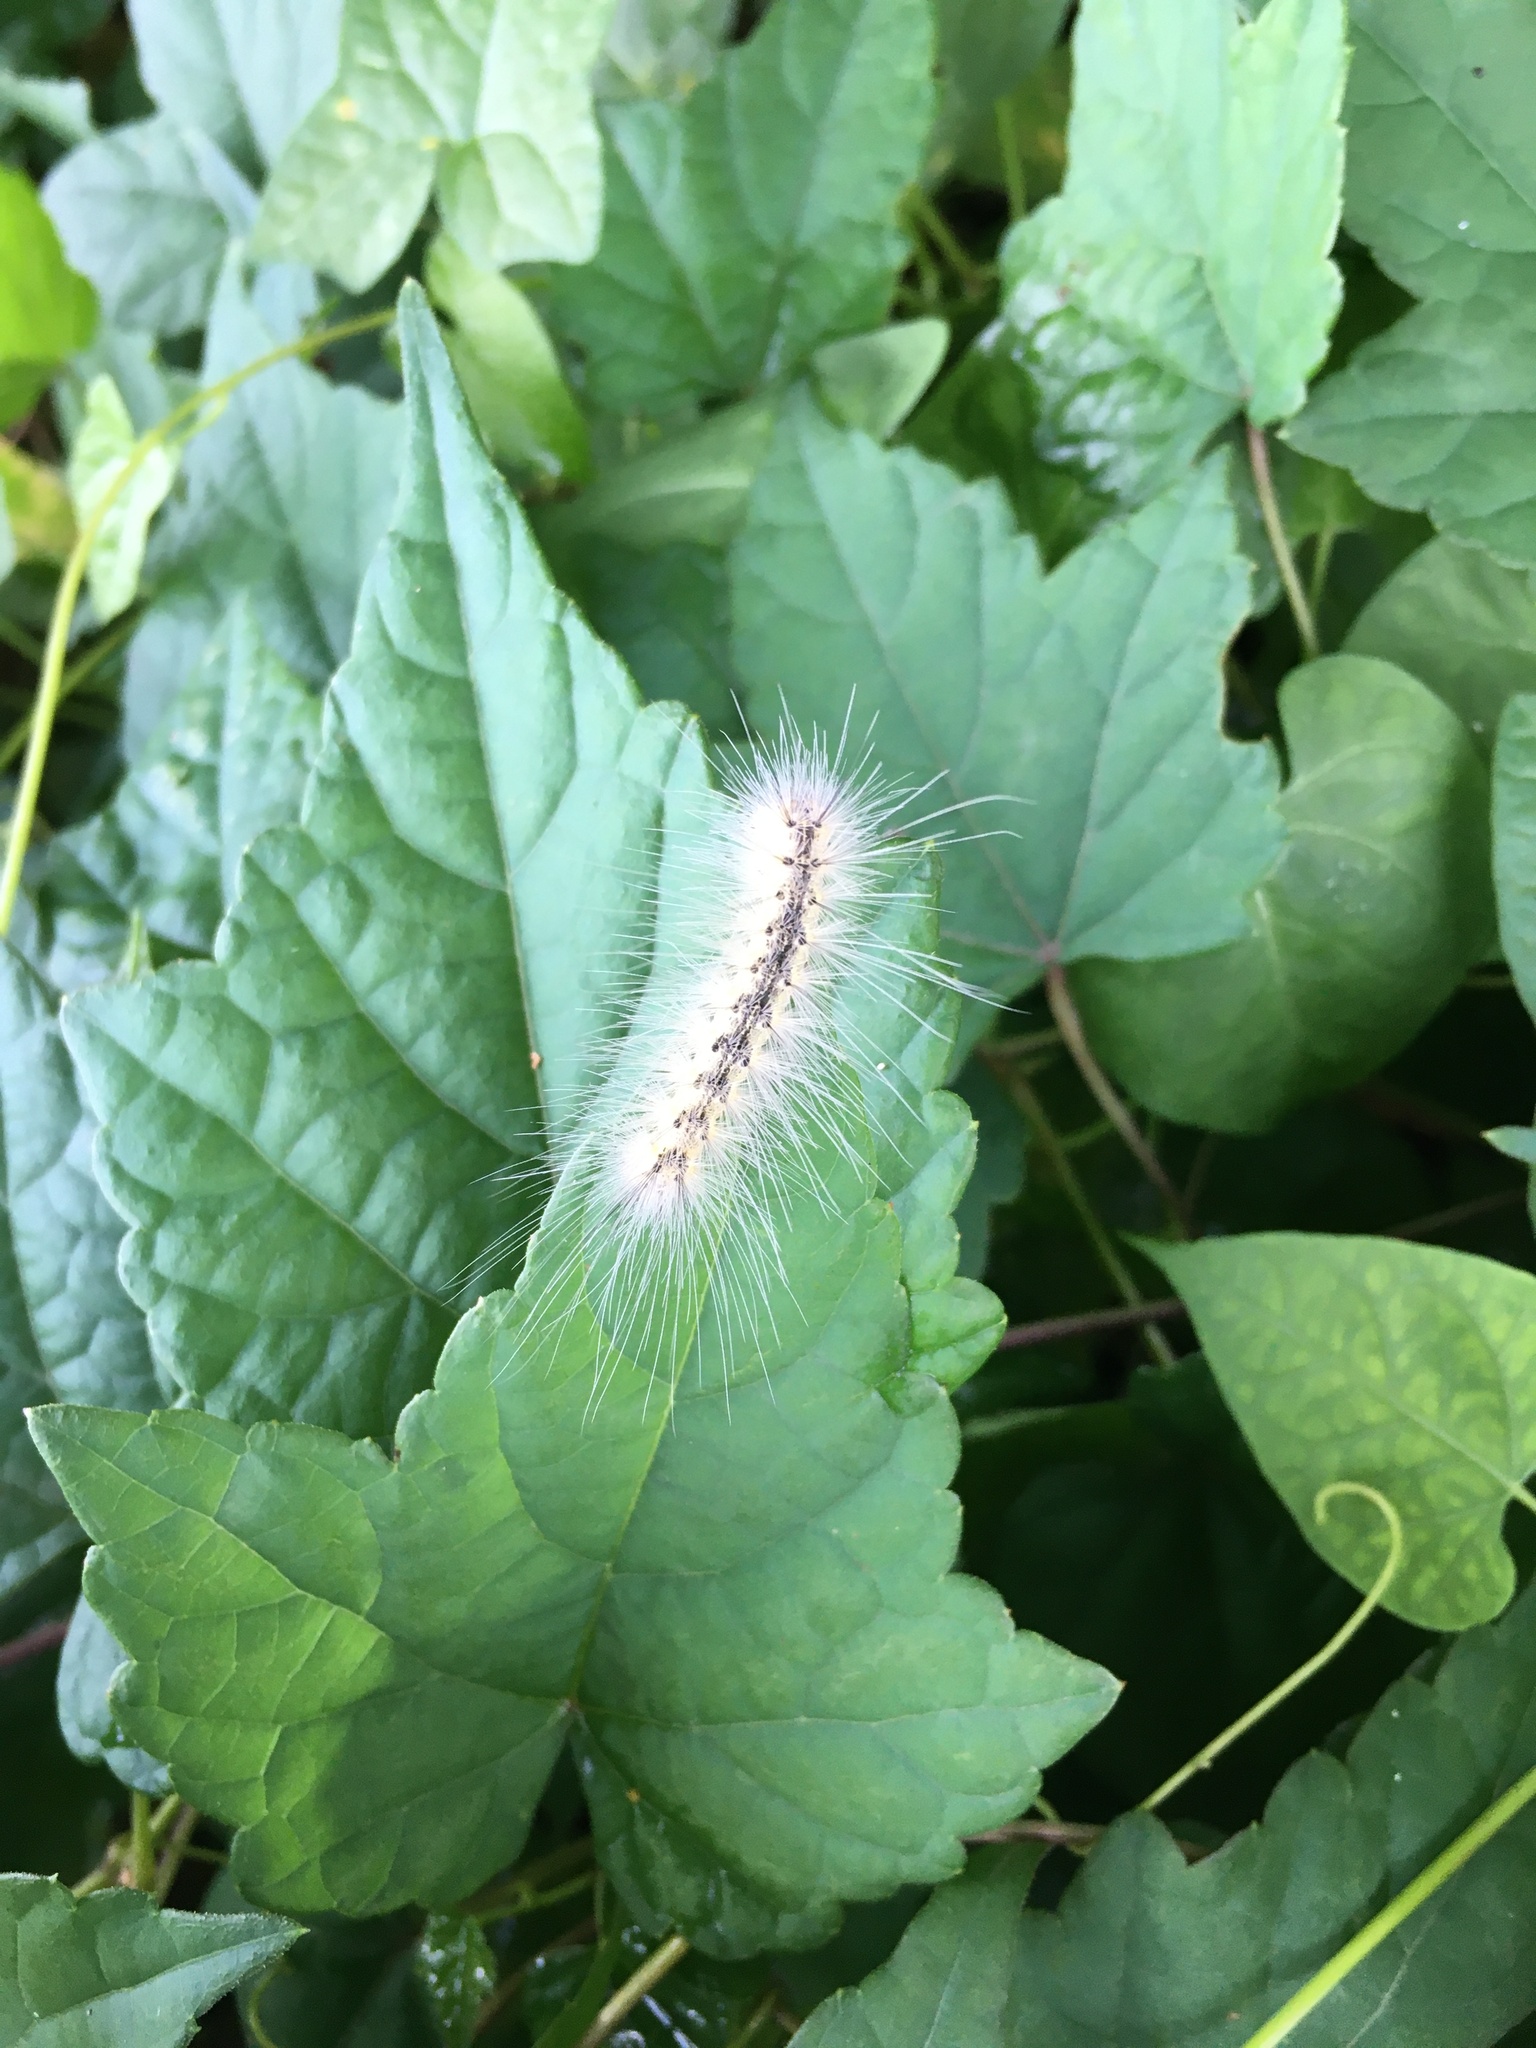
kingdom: Animalia
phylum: Arthropoda
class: Insecta
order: Lepidoptera
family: Erebidae
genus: Hyphantria
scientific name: Hyphantria cunea
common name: American white moth
